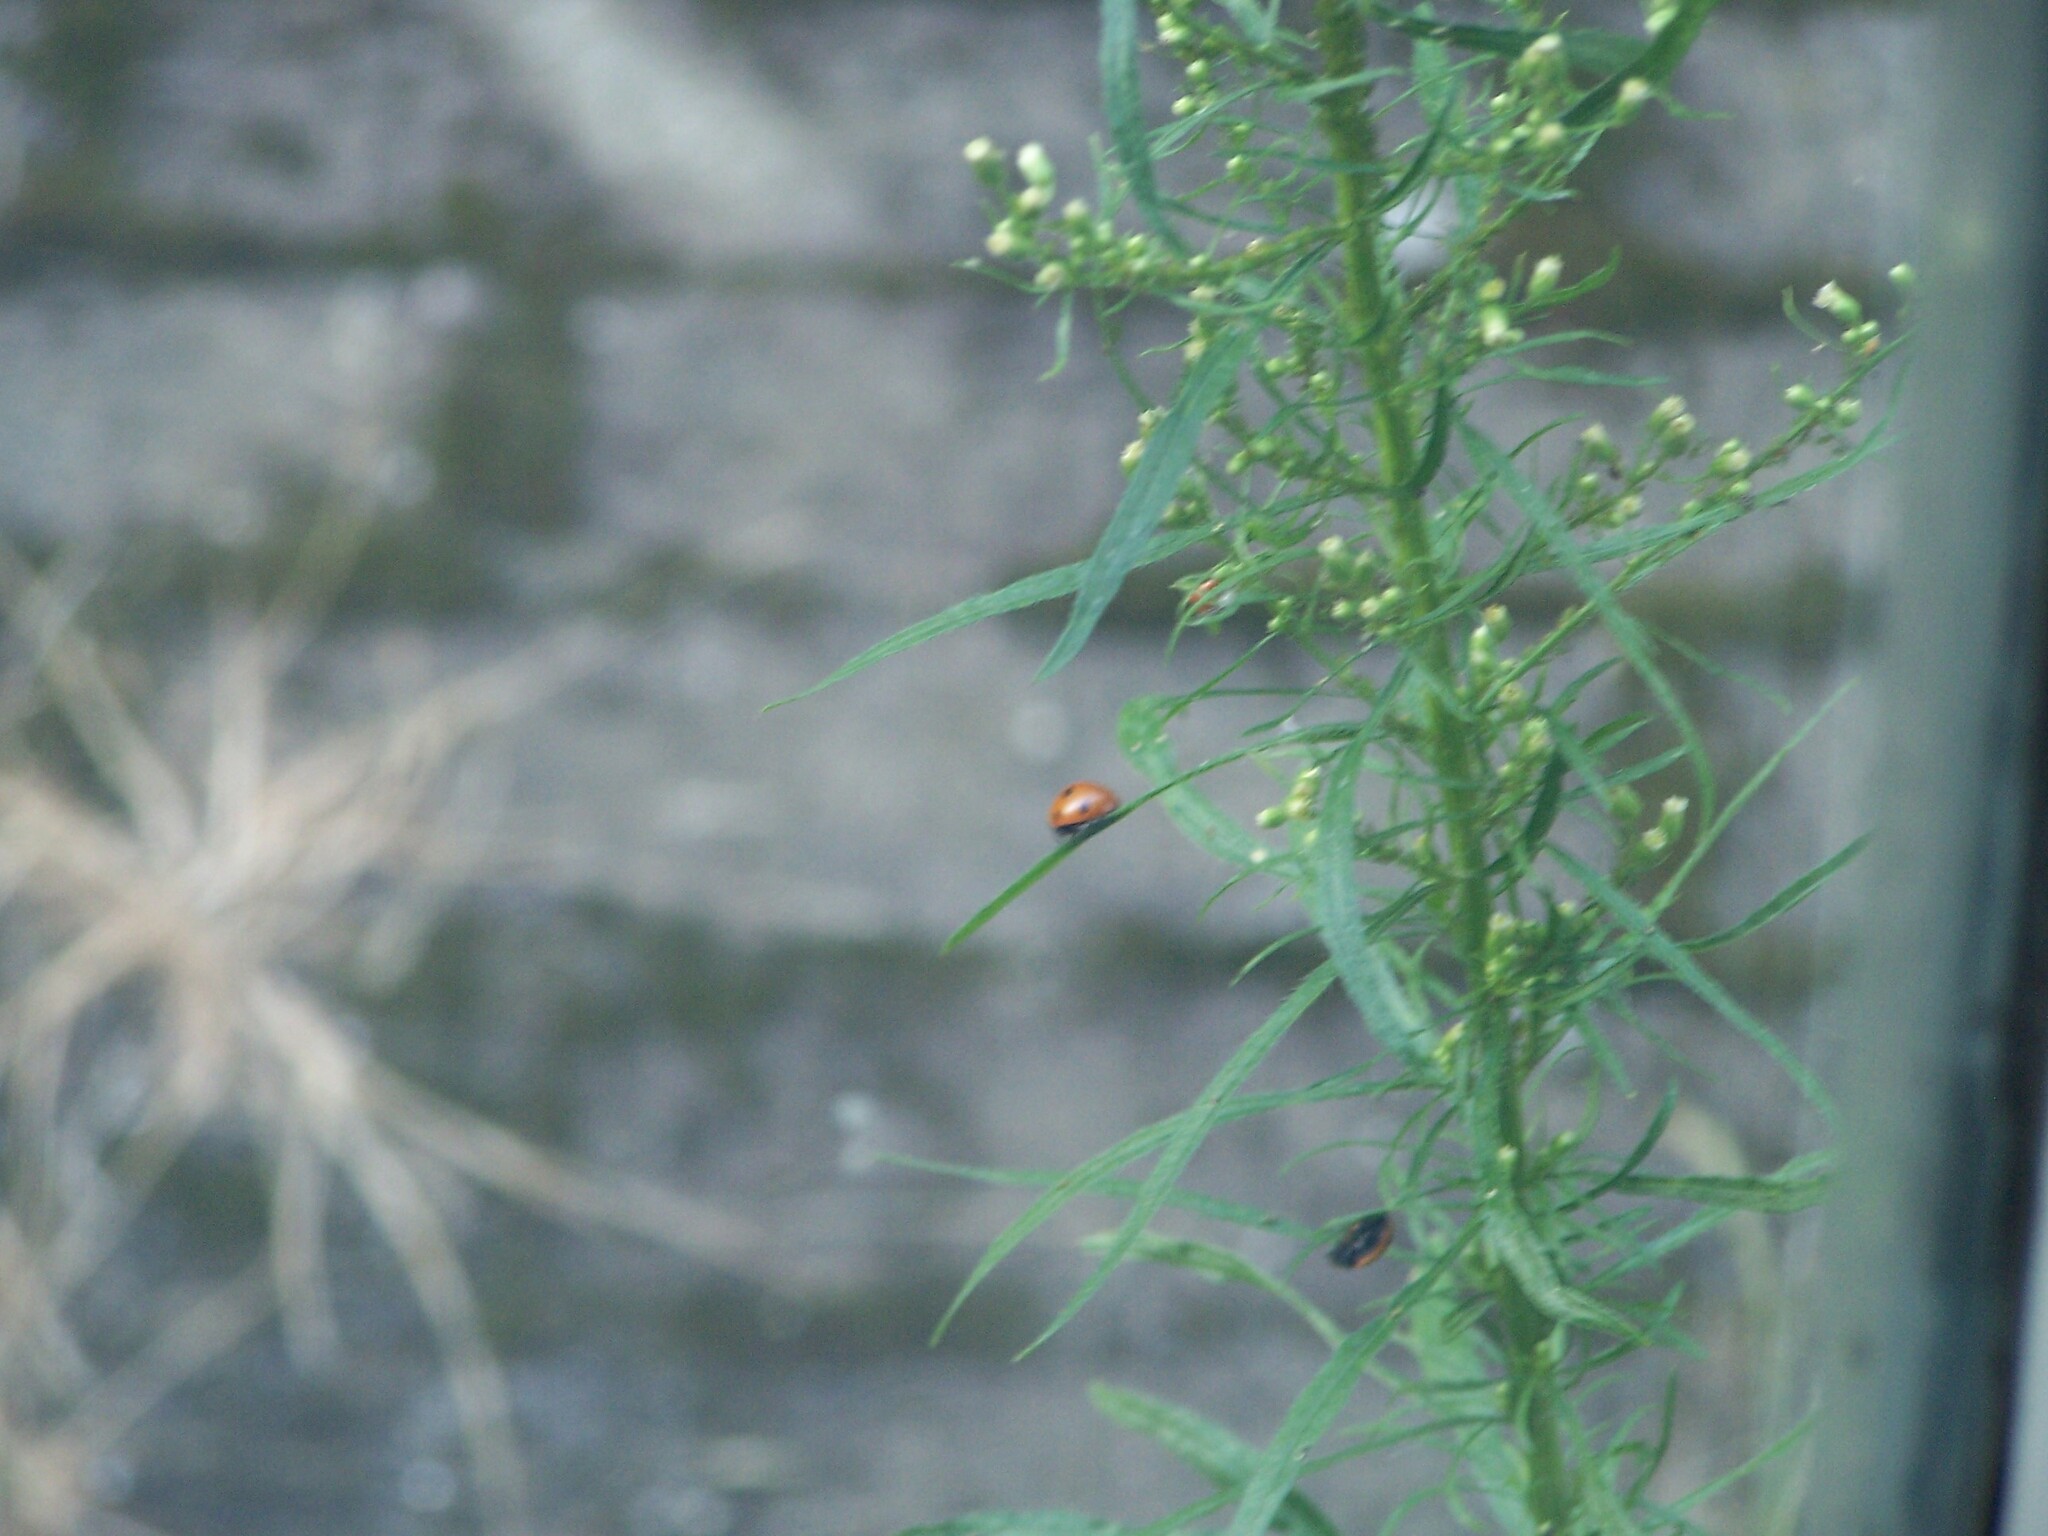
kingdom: Animalia
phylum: Arthropoda
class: Insecta
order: Coleoptera
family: Coccinellidae
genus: Coccinella
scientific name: Coccinella septempunctata
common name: Sevenspotted lady beetle
